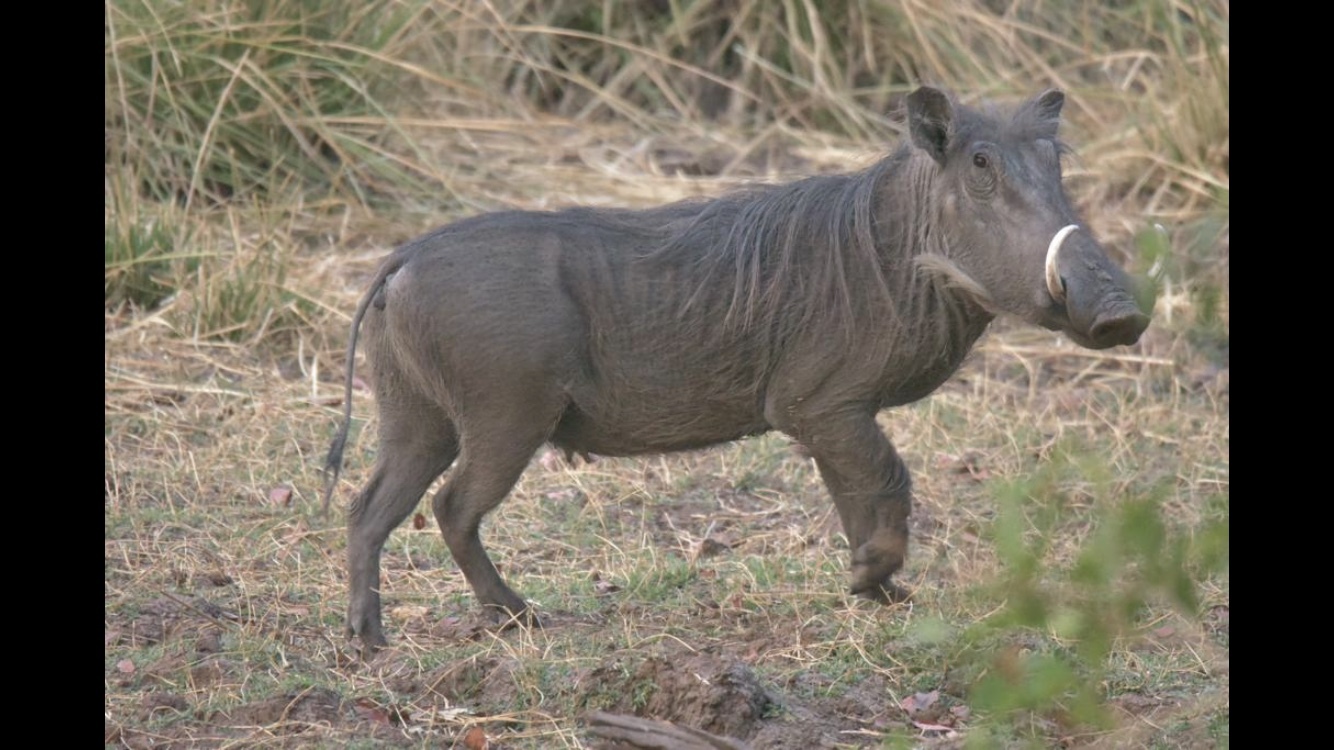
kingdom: Animalia
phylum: Chordata
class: Mammalia
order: Artiodactyla
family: Suidae
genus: Phacochoerus
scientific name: Phacochoerus africanus
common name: Common warthog
